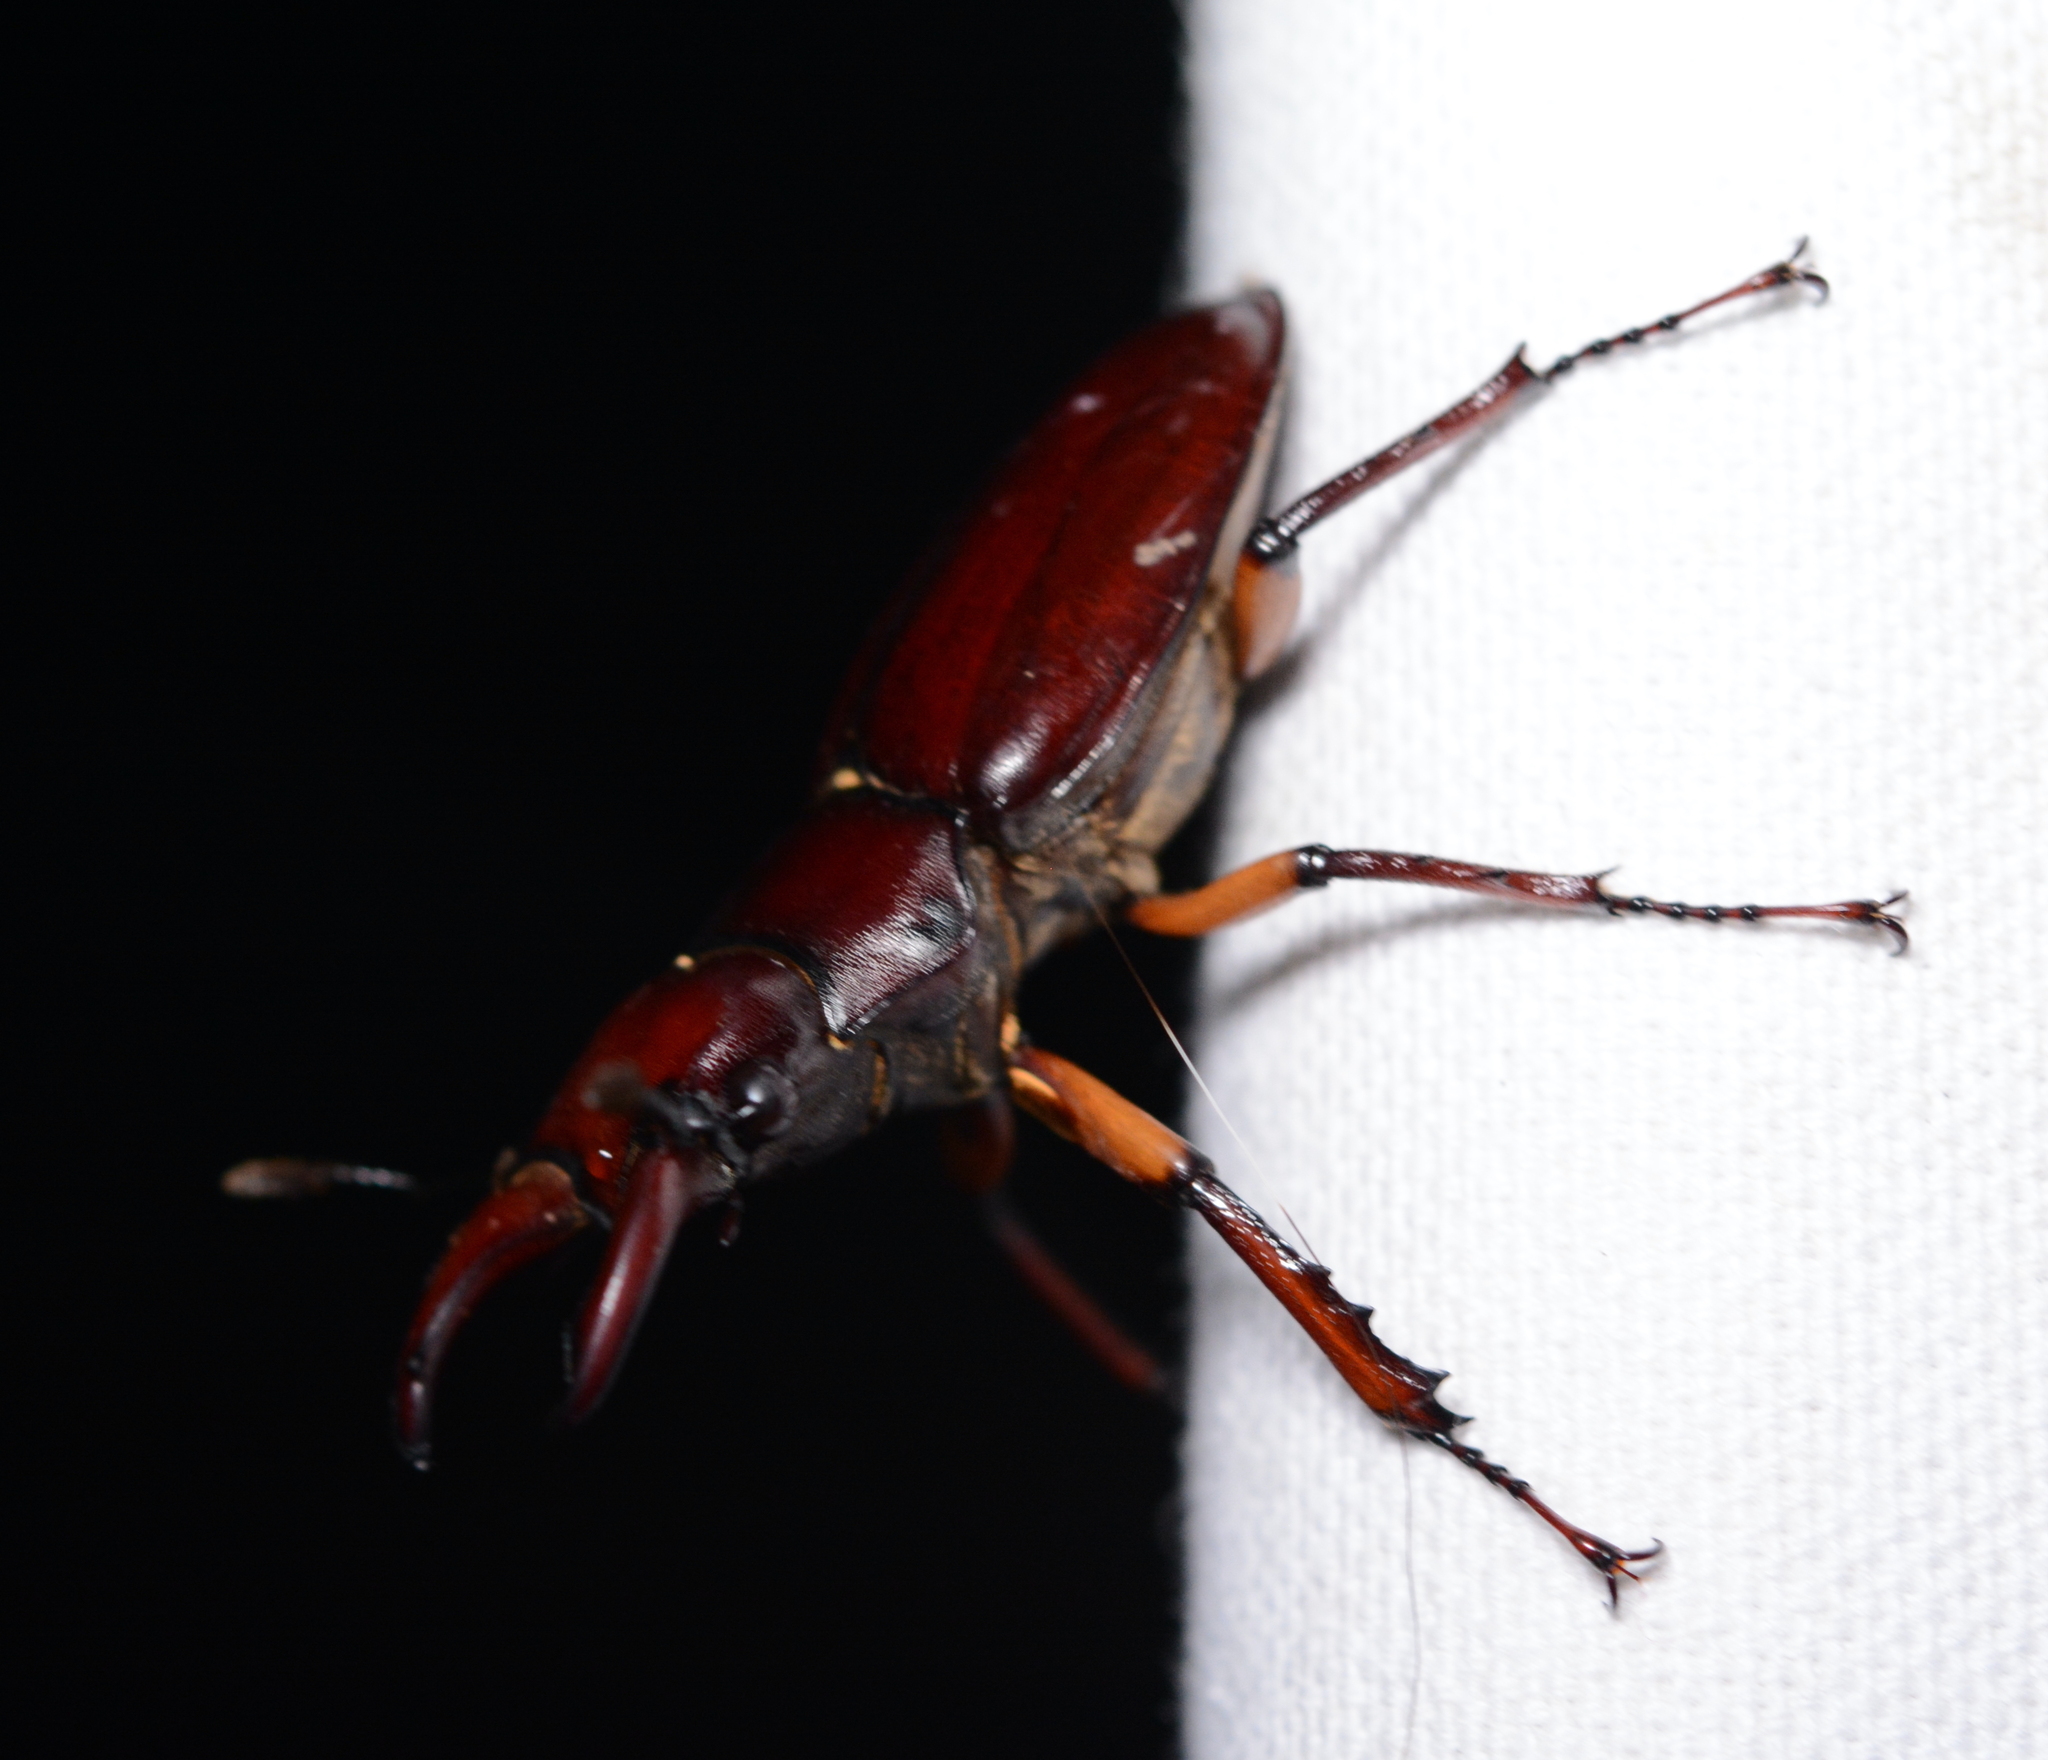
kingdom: Animalia
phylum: Arthropoda
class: Insecta
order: Coleoptera
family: Lucanidae
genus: Lucanus
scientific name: Lucanus capreolus
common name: Stag beetle
